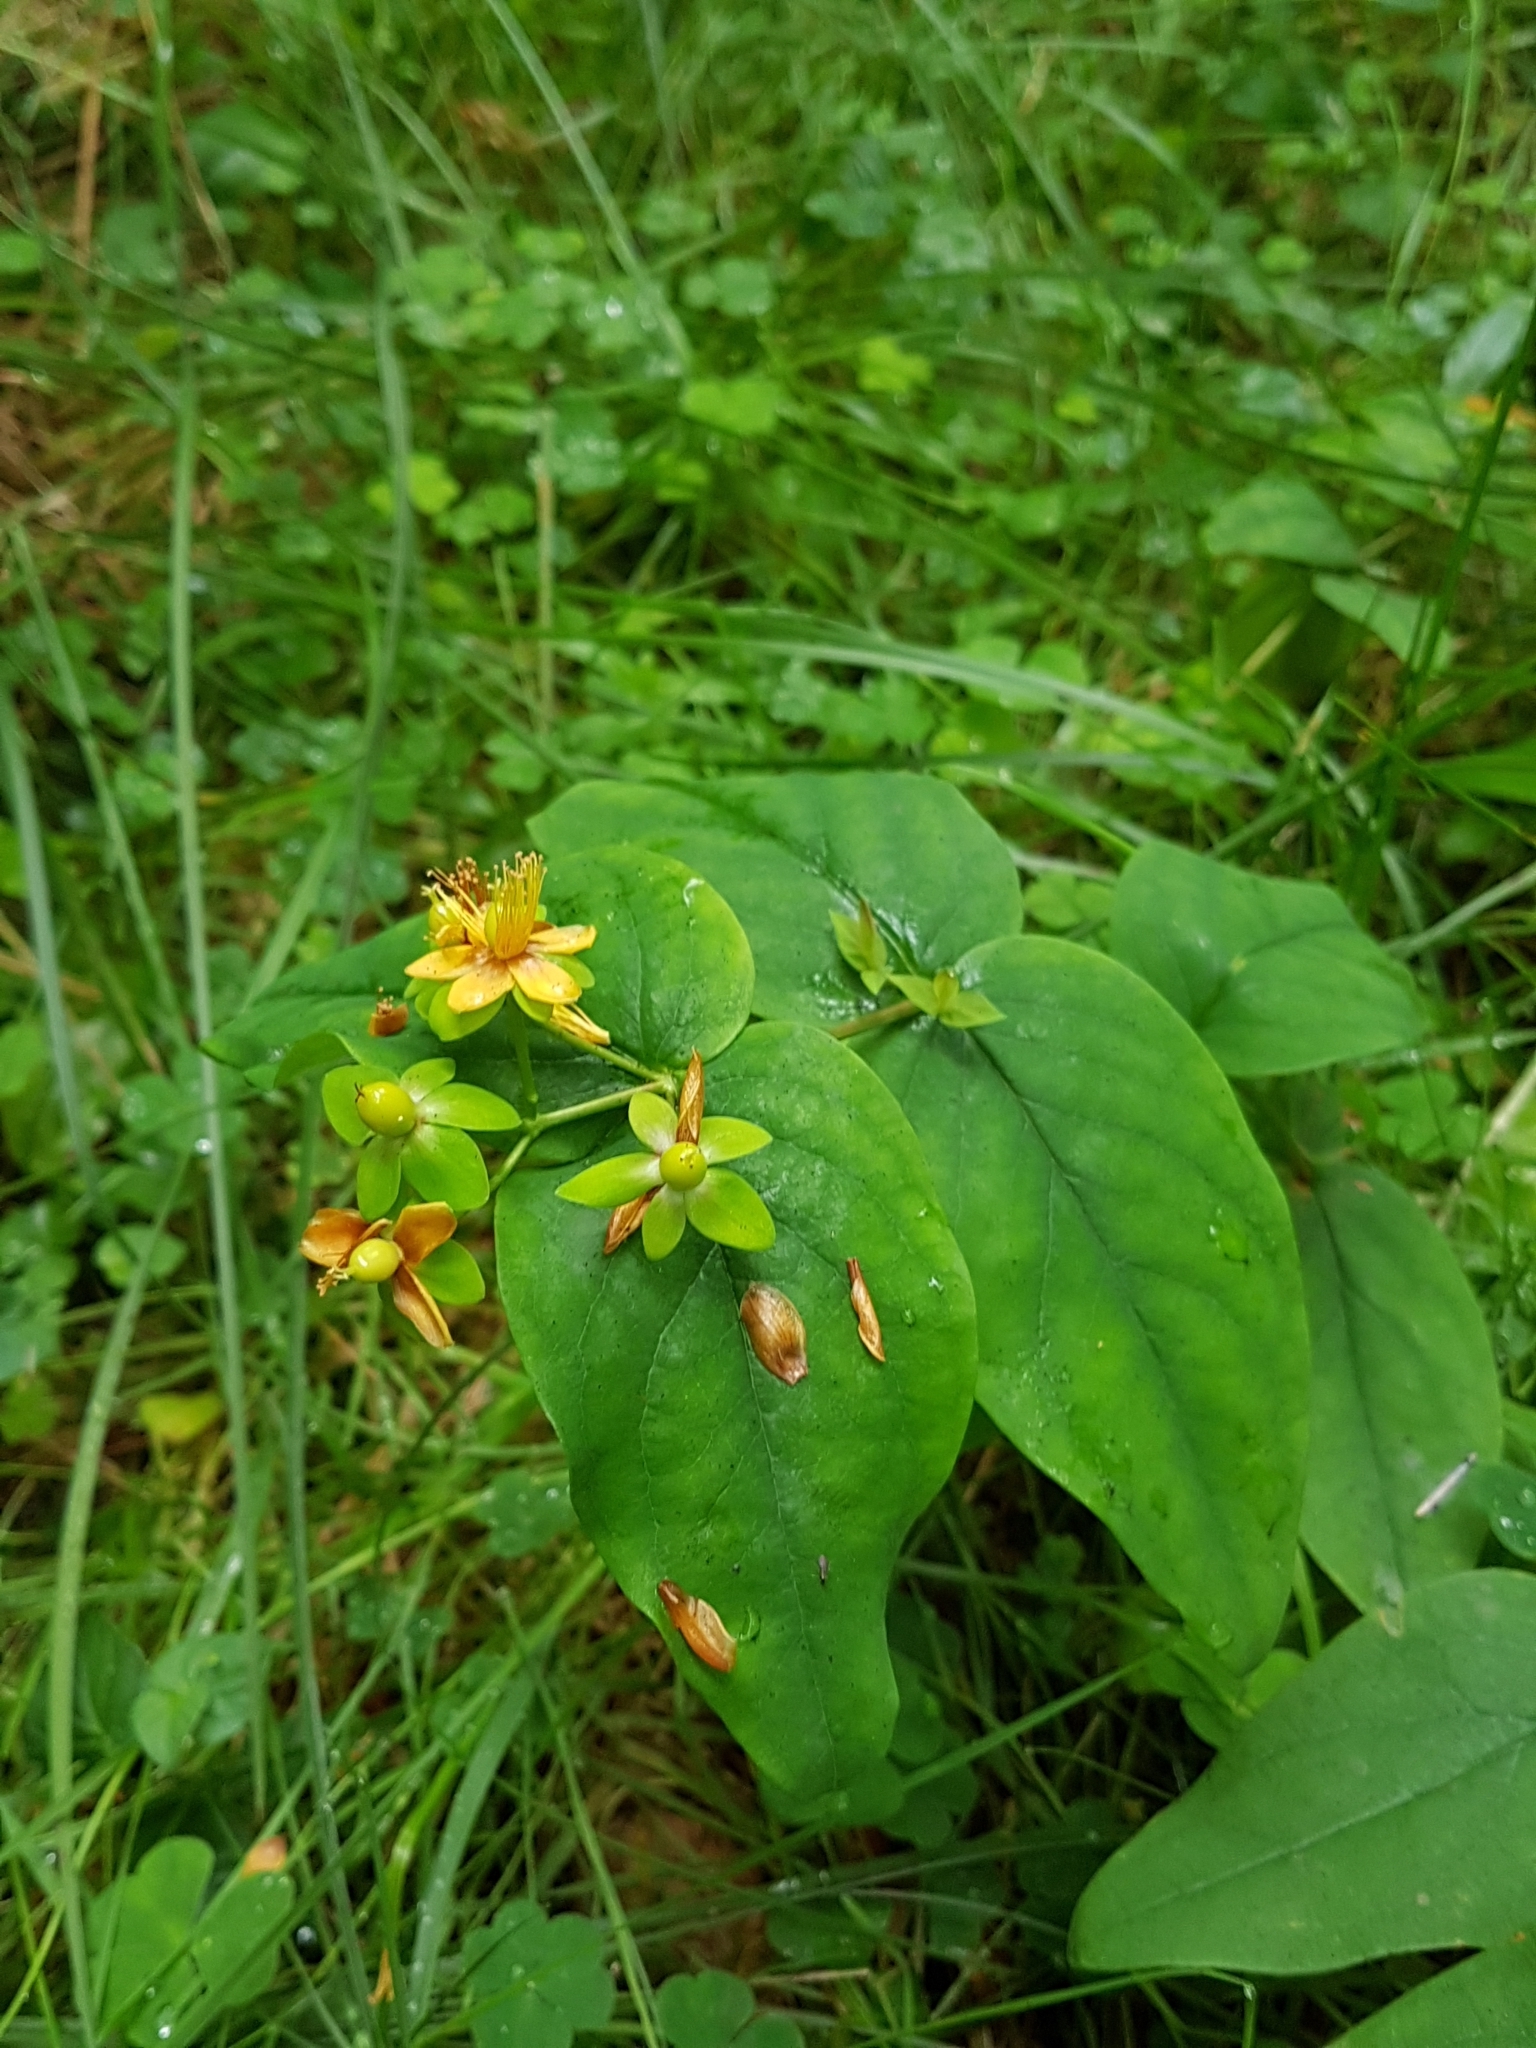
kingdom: Plantae
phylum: Tracheophyta
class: Magnoliopsida
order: Malpighiales
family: Hypericaceae
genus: Hypericum
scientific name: Hypericum androsaemum
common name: Sweet-amber
